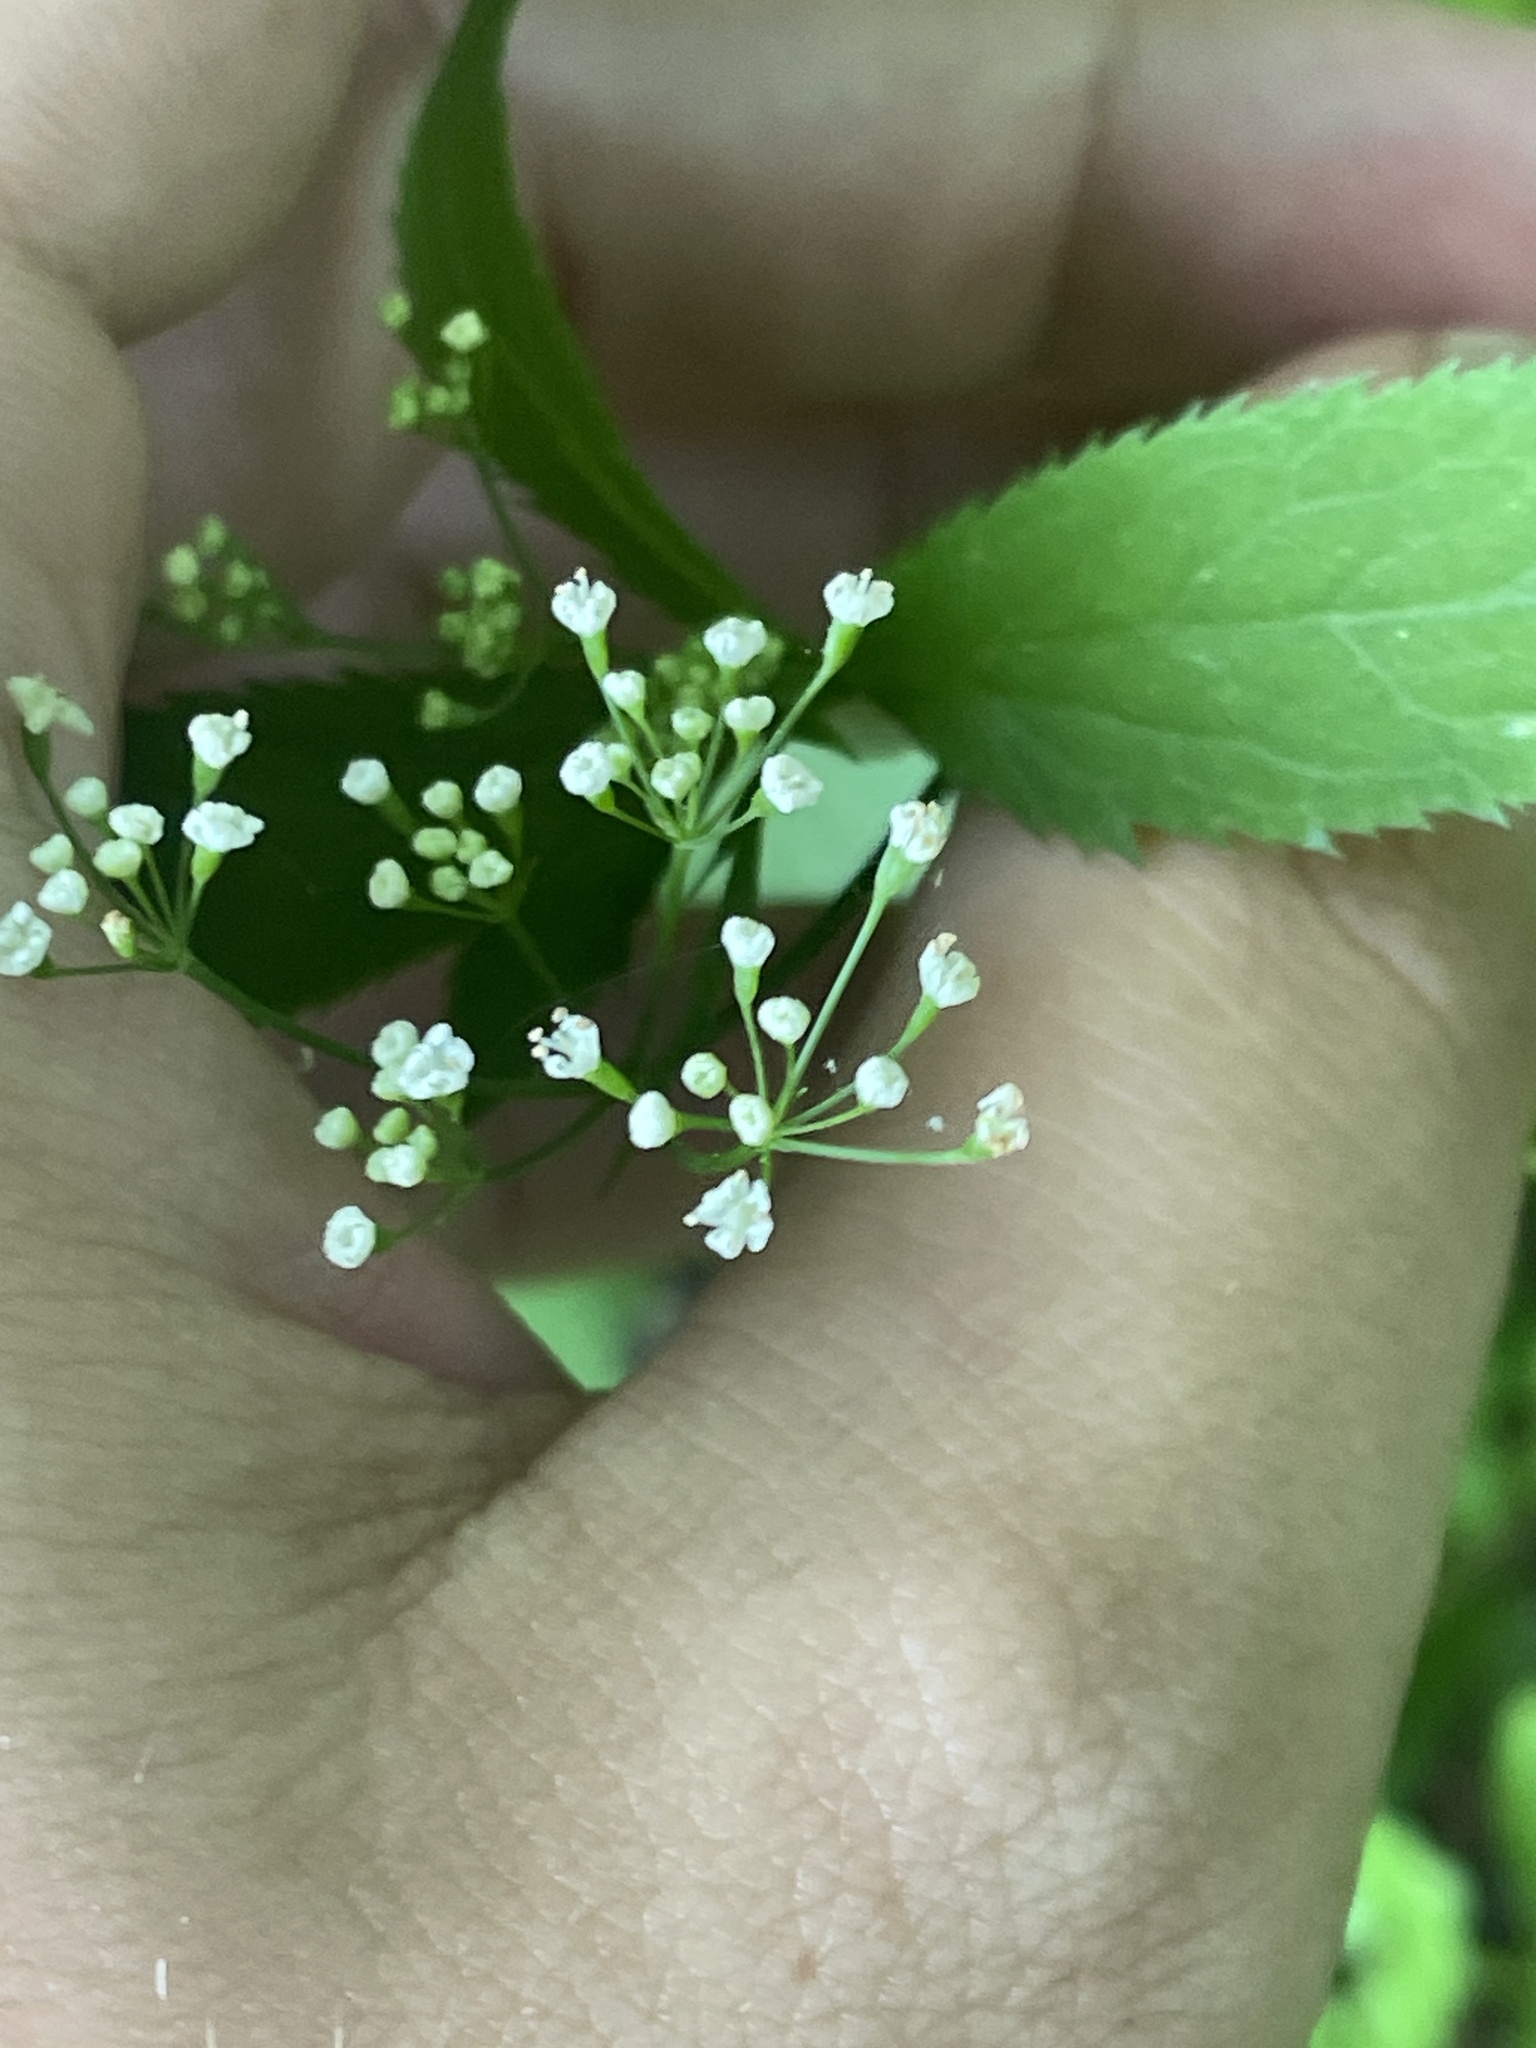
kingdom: Plantae
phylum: Tracheophyta
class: Magnoliopsida
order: Apiales
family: Apiaceae
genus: Cryptotaenia
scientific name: Cryptotaenia canadensis
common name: Honewort
